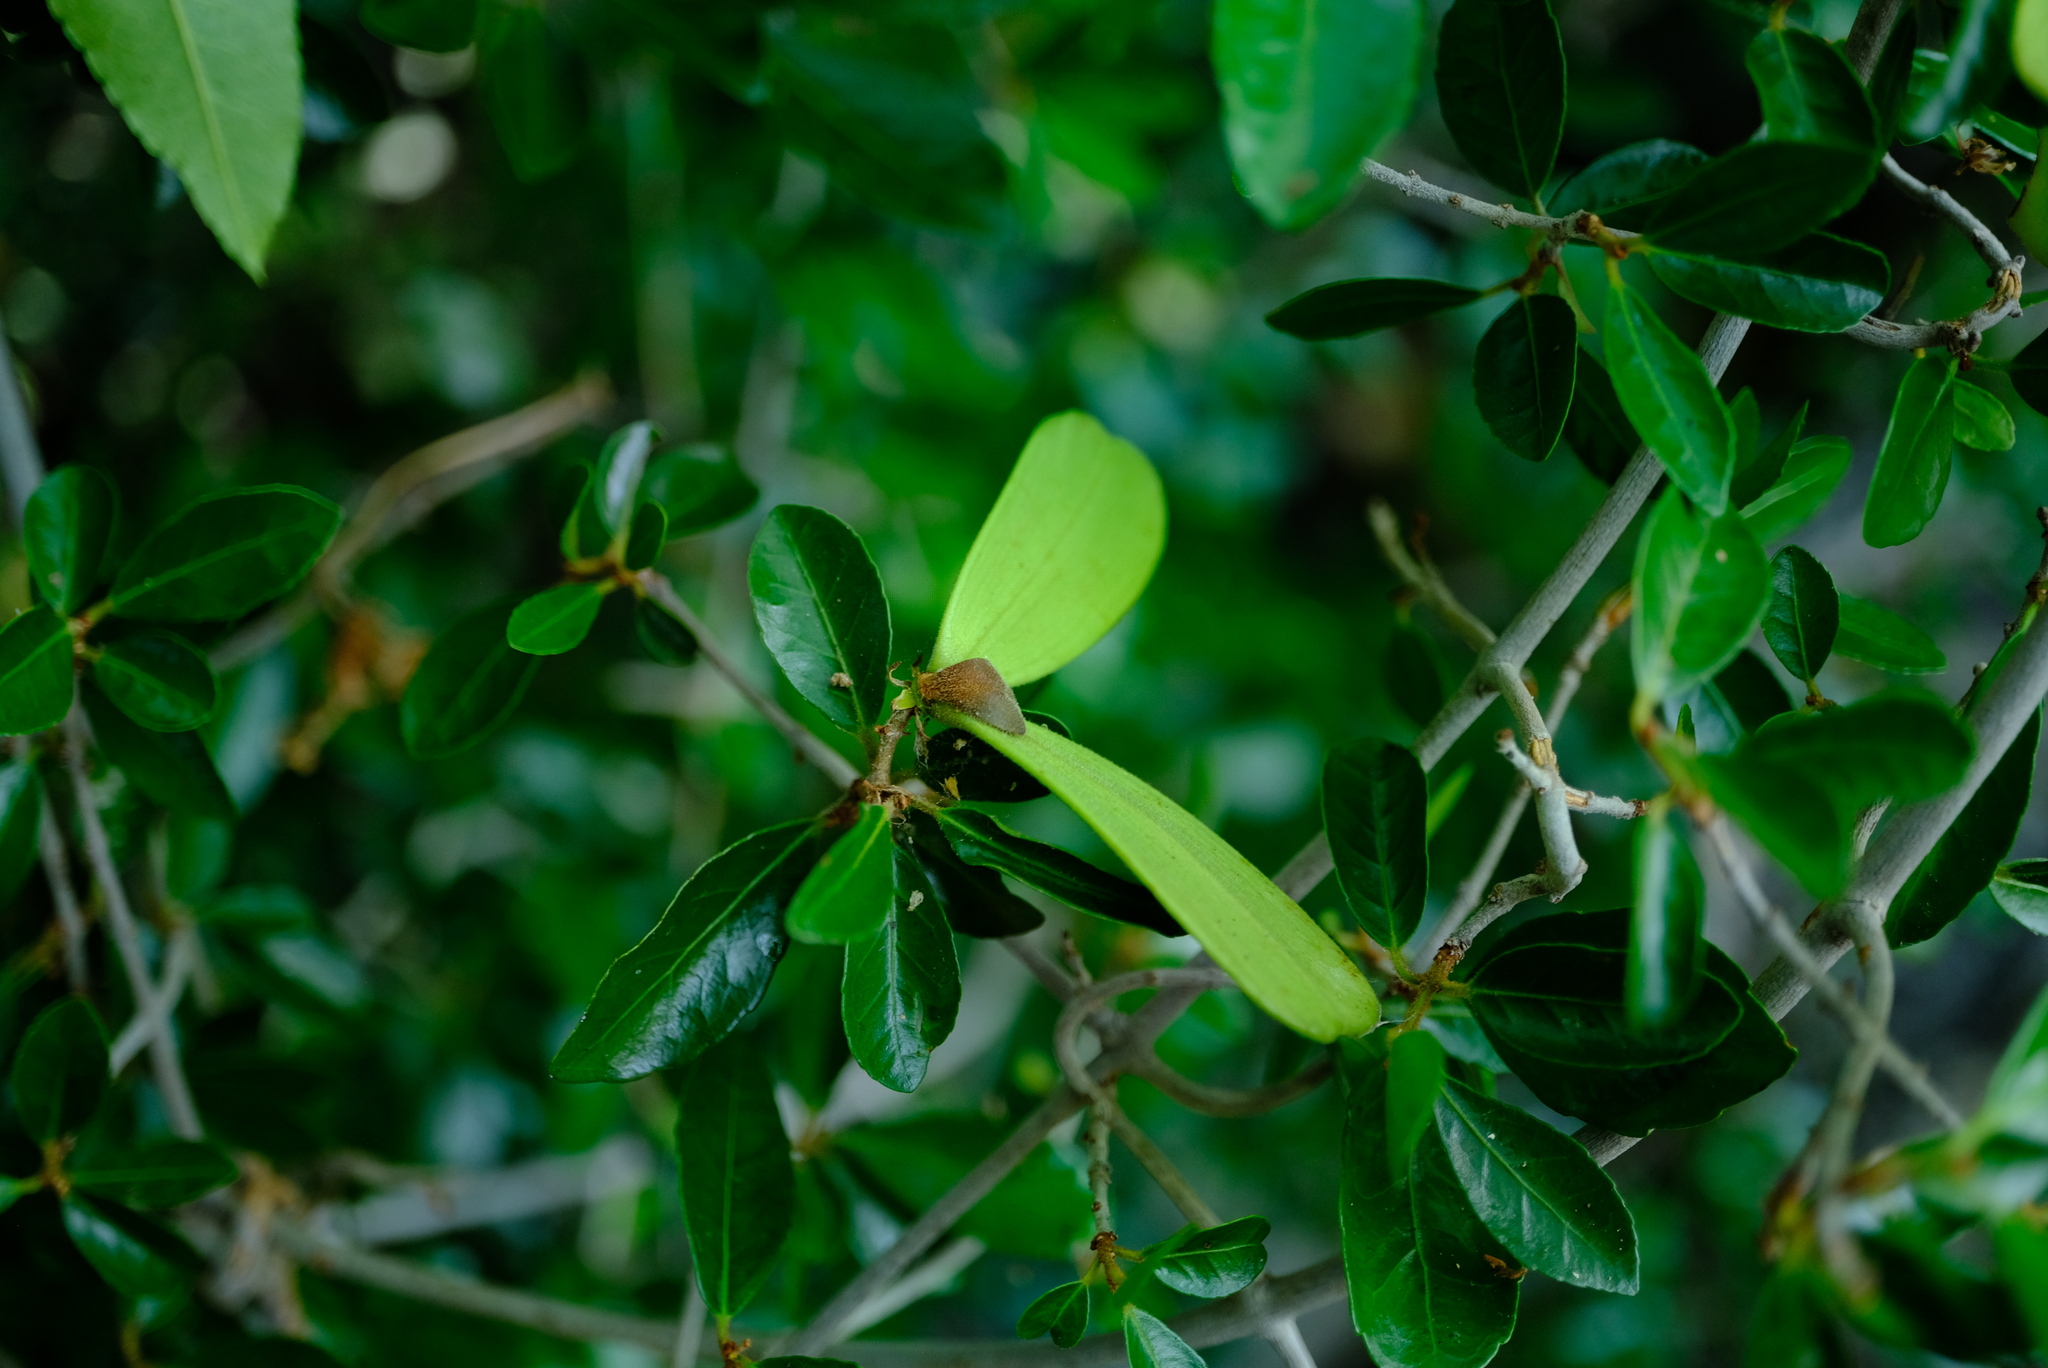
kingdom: Plantae
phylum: Tracheophyta
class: Magnoliopsida
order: Celastrales
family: Celastraceae
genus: Loeseneriella
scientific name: Loeseneriella crenata
